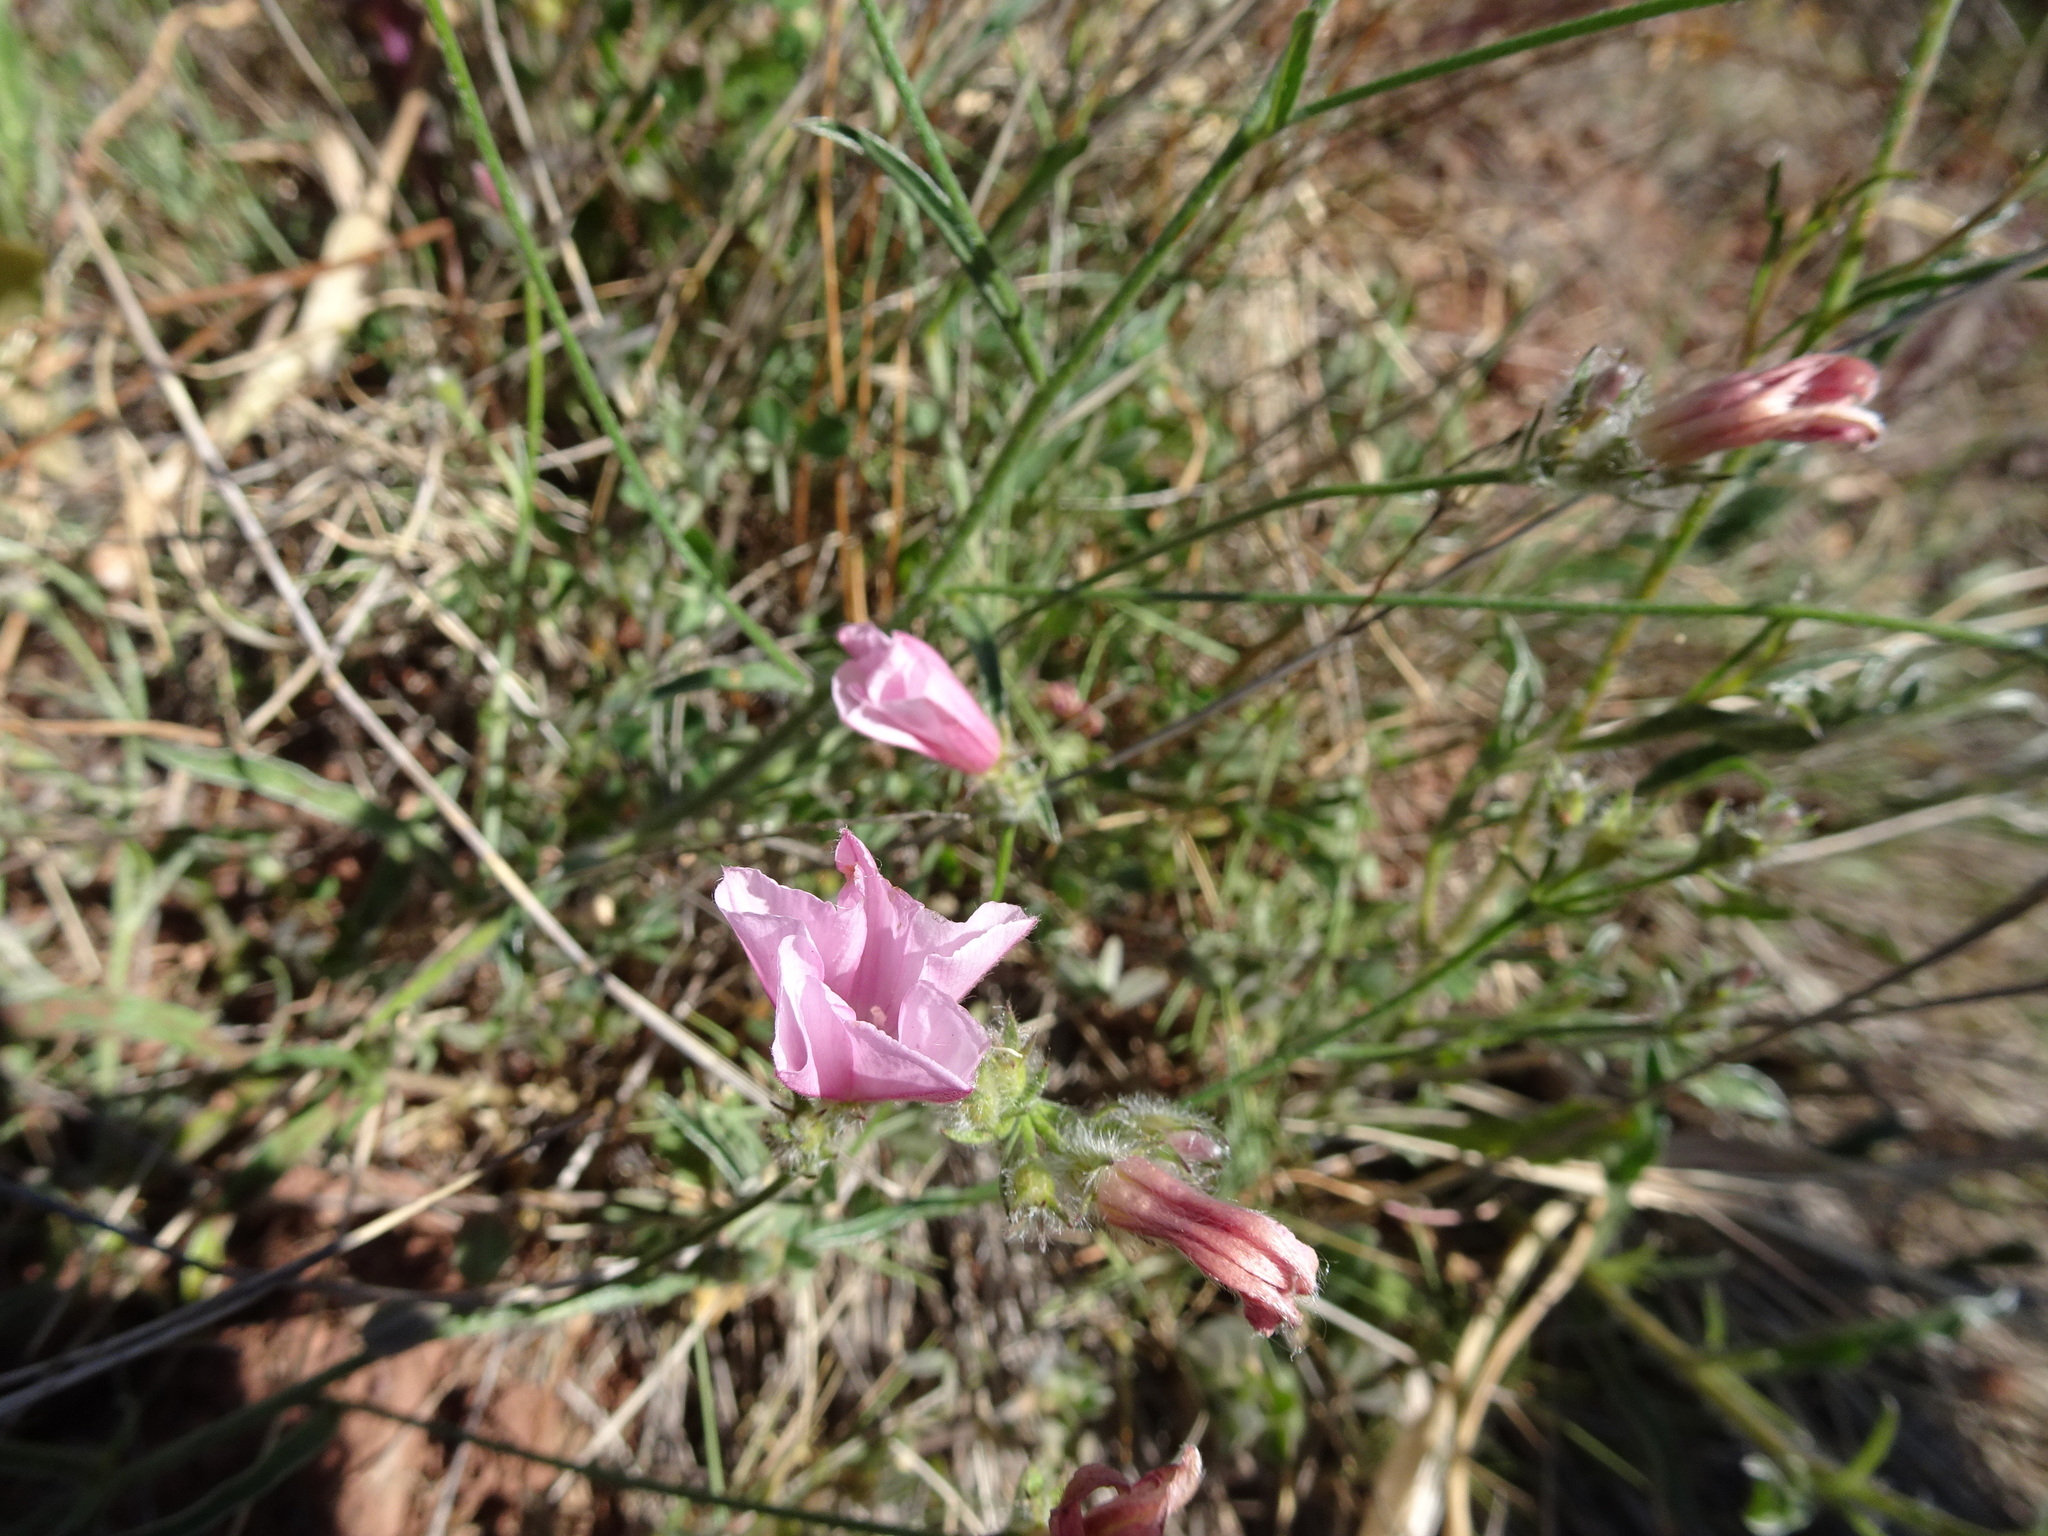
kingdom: Plantae
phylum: Tracheophyta
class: Magnoliopsida
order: Solanales
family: Convolvulaceae
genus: Convolvulus
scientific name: Convolvulus cantabrica
